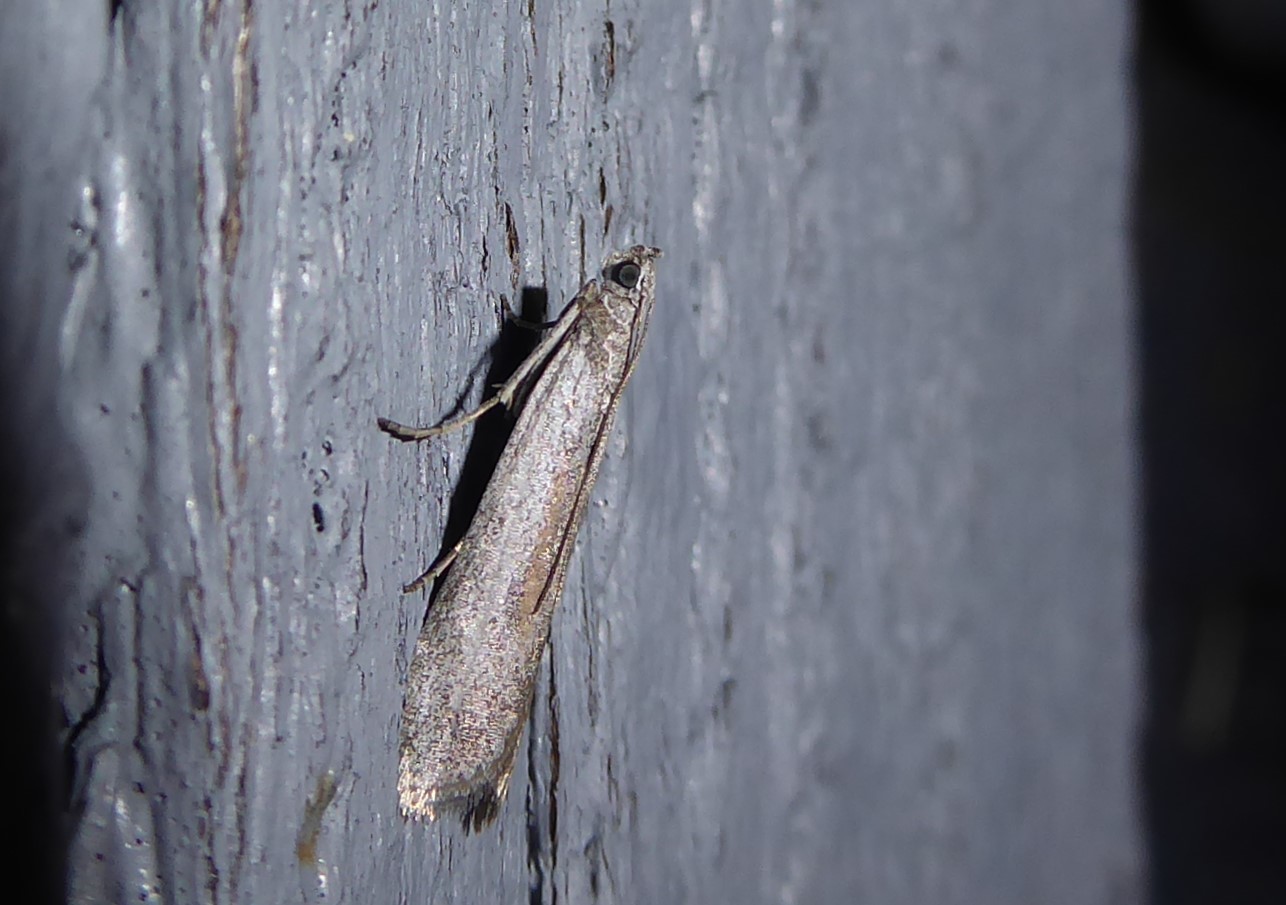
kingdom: Animalia
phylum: Arthropoda
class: Insecta
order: Lepidoptera
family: Pyralidae
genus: Homoeosoma
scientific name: Homoeosoma anaspila
